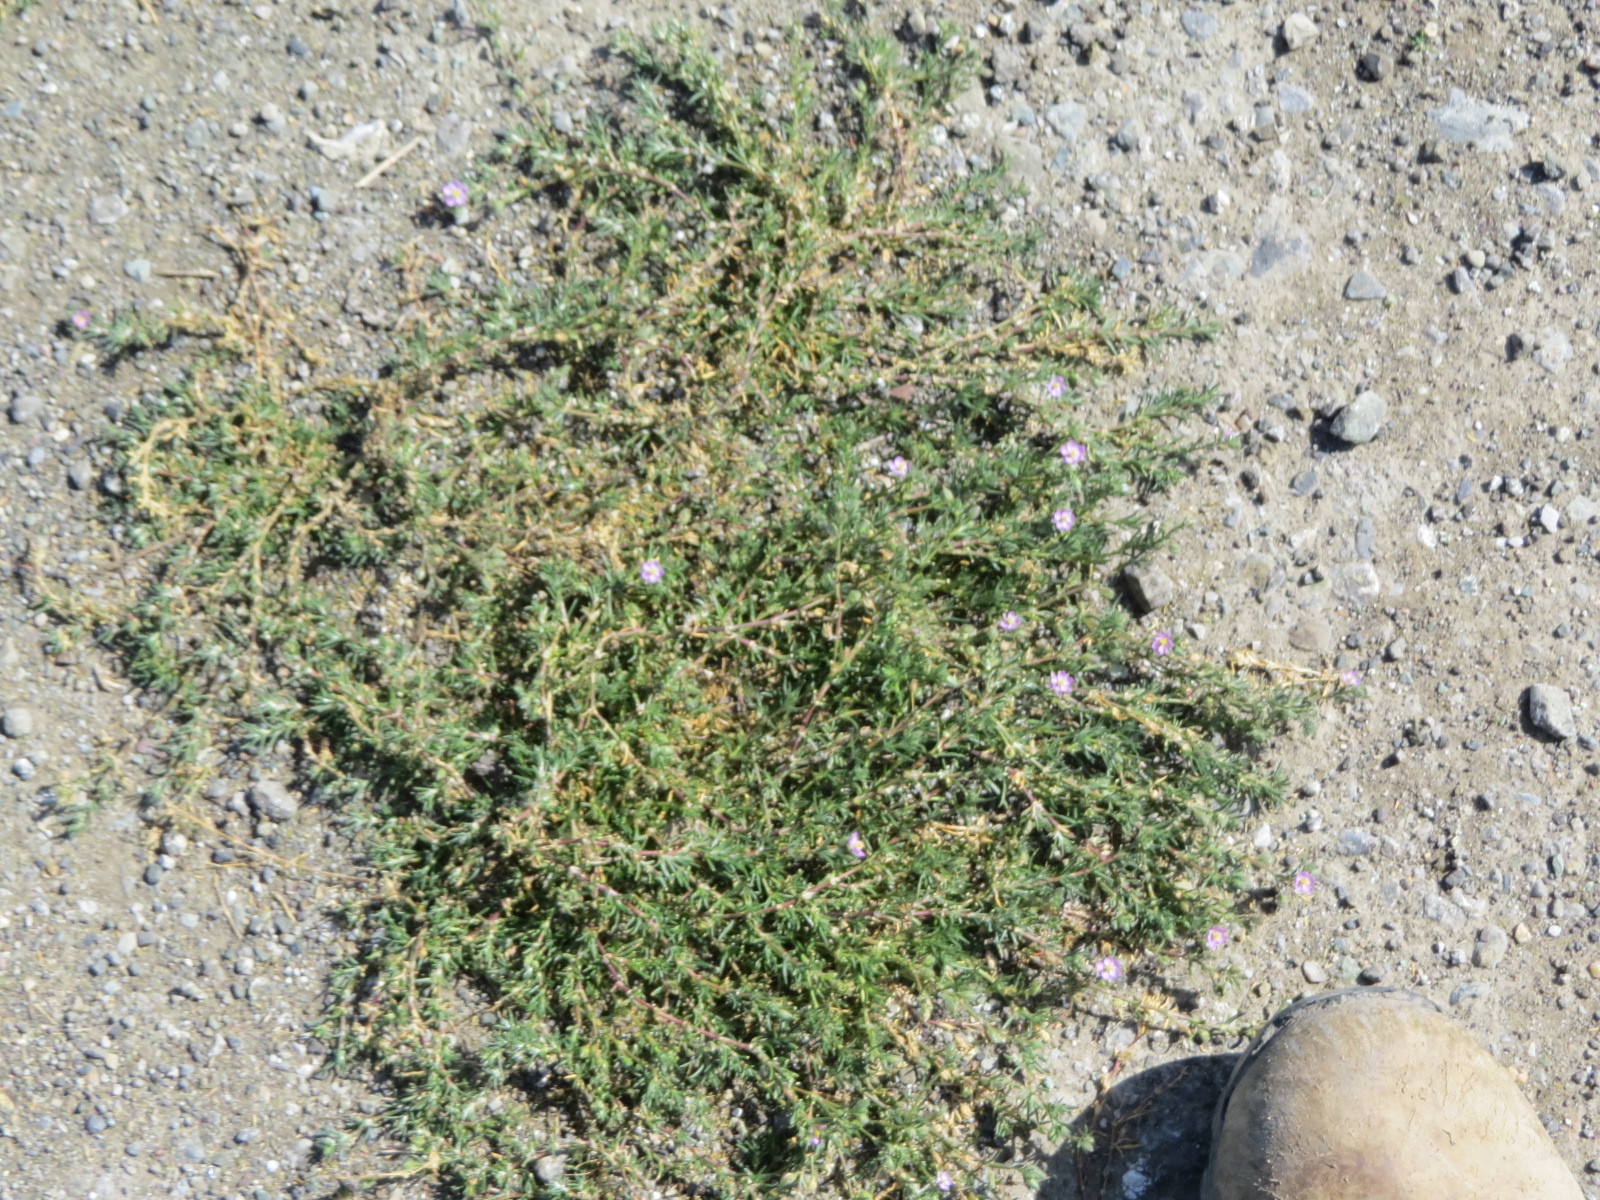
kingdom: Plantae
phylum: Tracheophyta
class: Magnoliopsida
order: Caryophyllales
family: Caryophyllaceae
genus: Spergularia
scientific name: Spergularia rubra
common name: Red sand-spurrey
